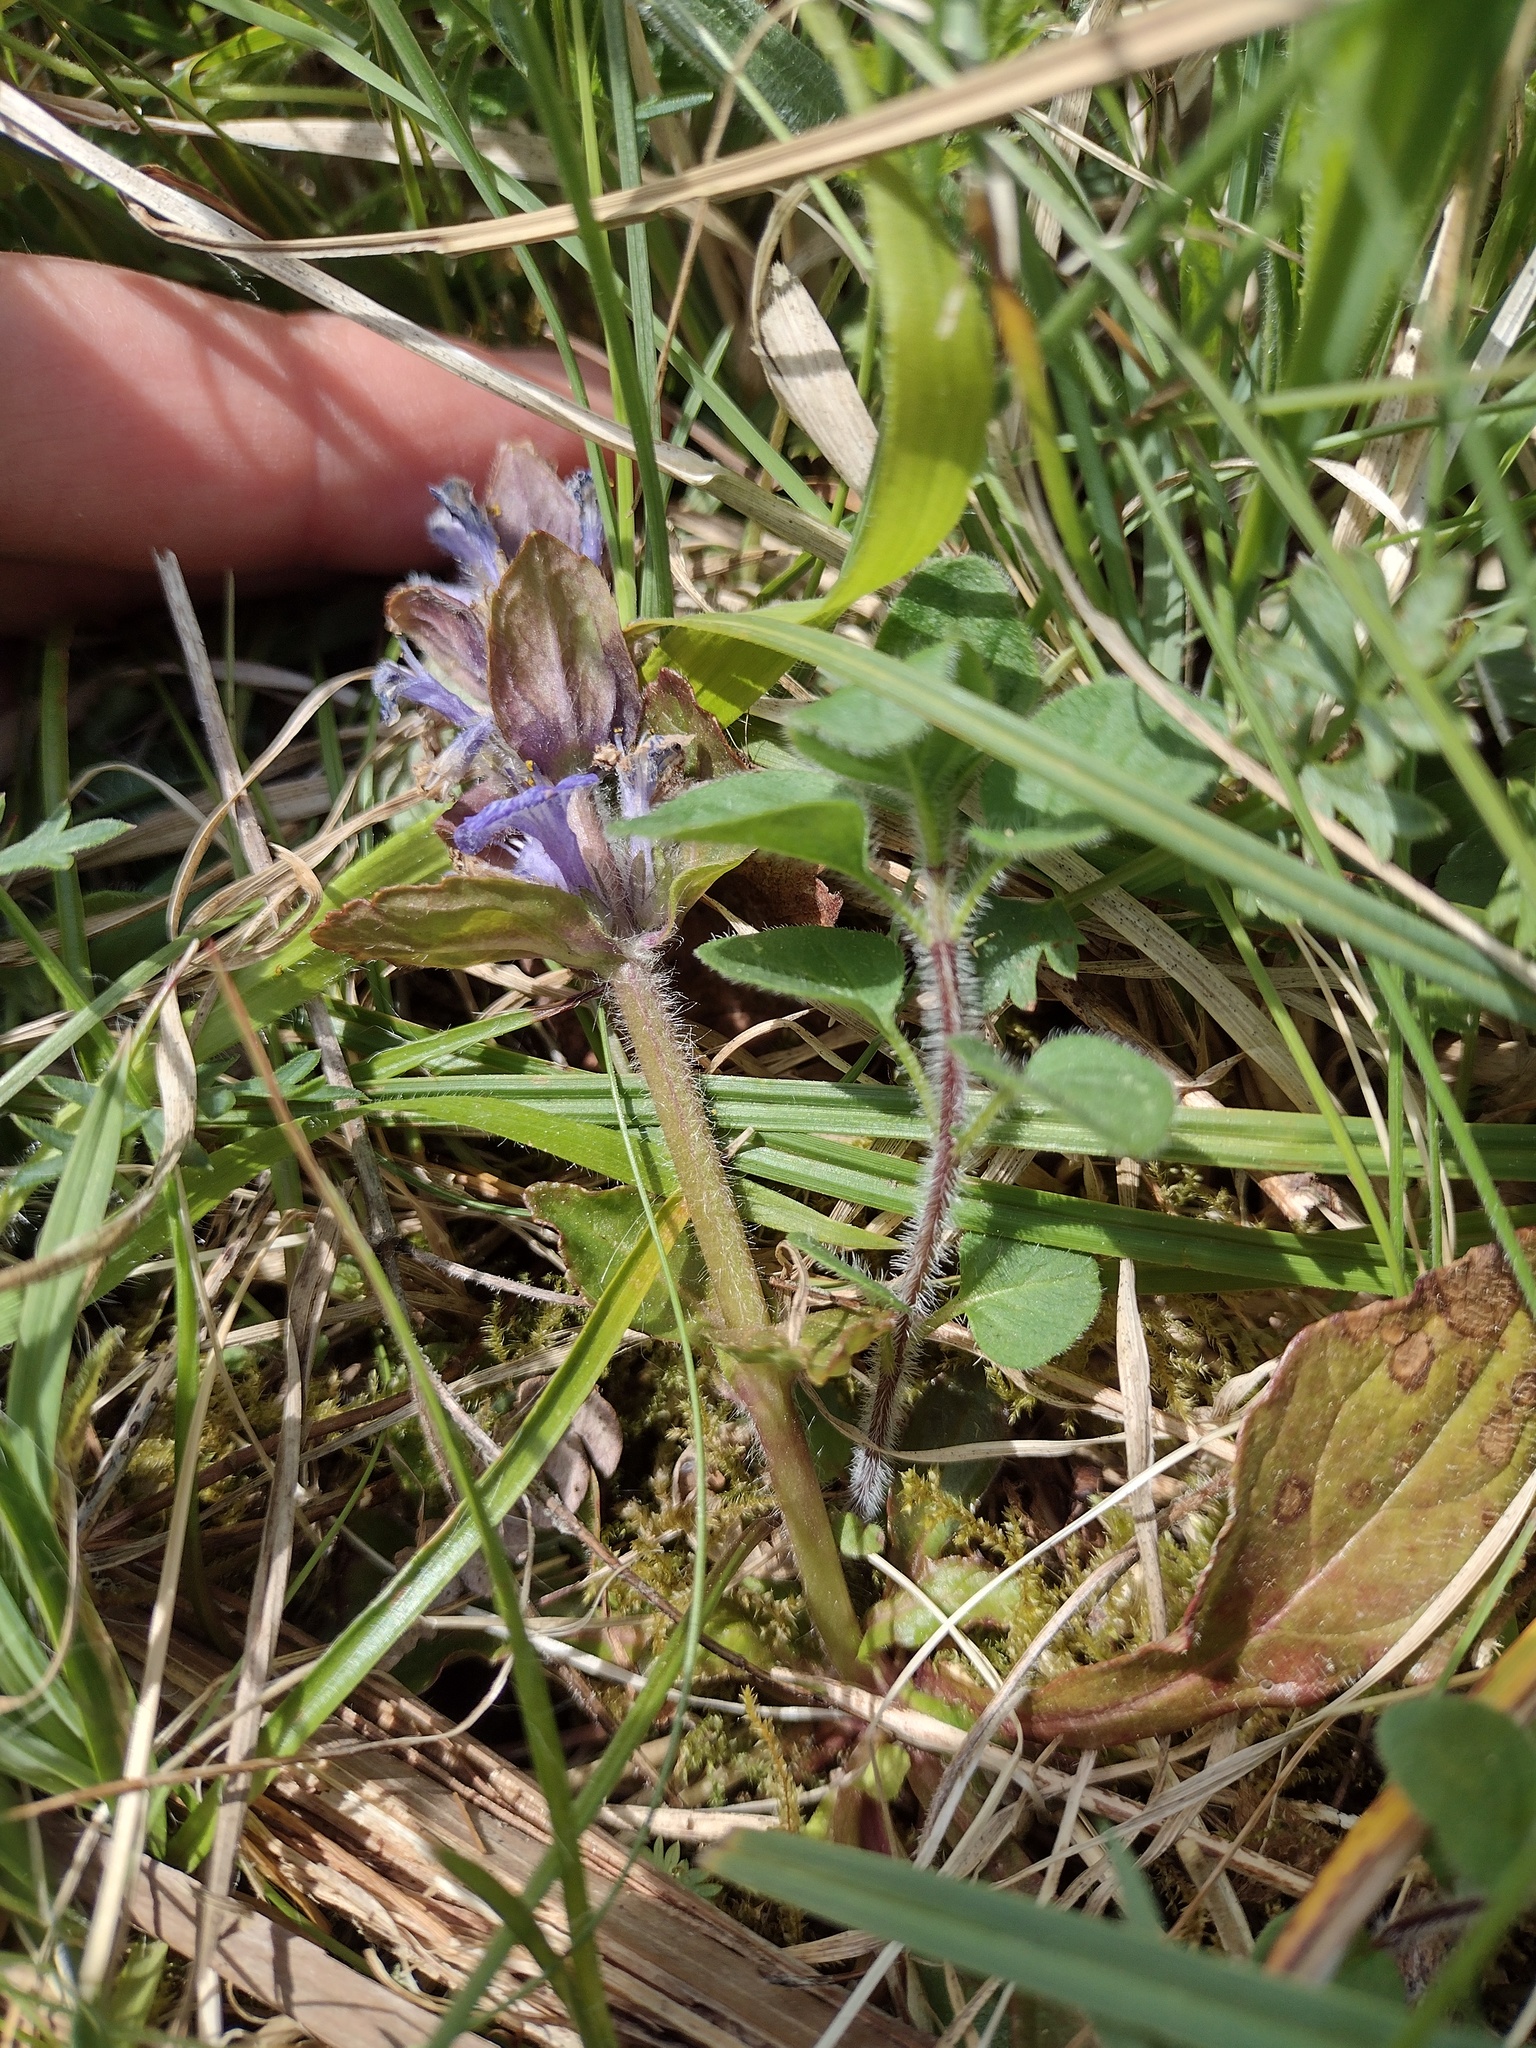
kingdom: Plantae
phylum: Tracheophyta
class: Magnoliopsida
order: Lamiales
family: Lamiaceae
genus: Ajuga
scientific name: Ajuga reptans
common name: Bugle
